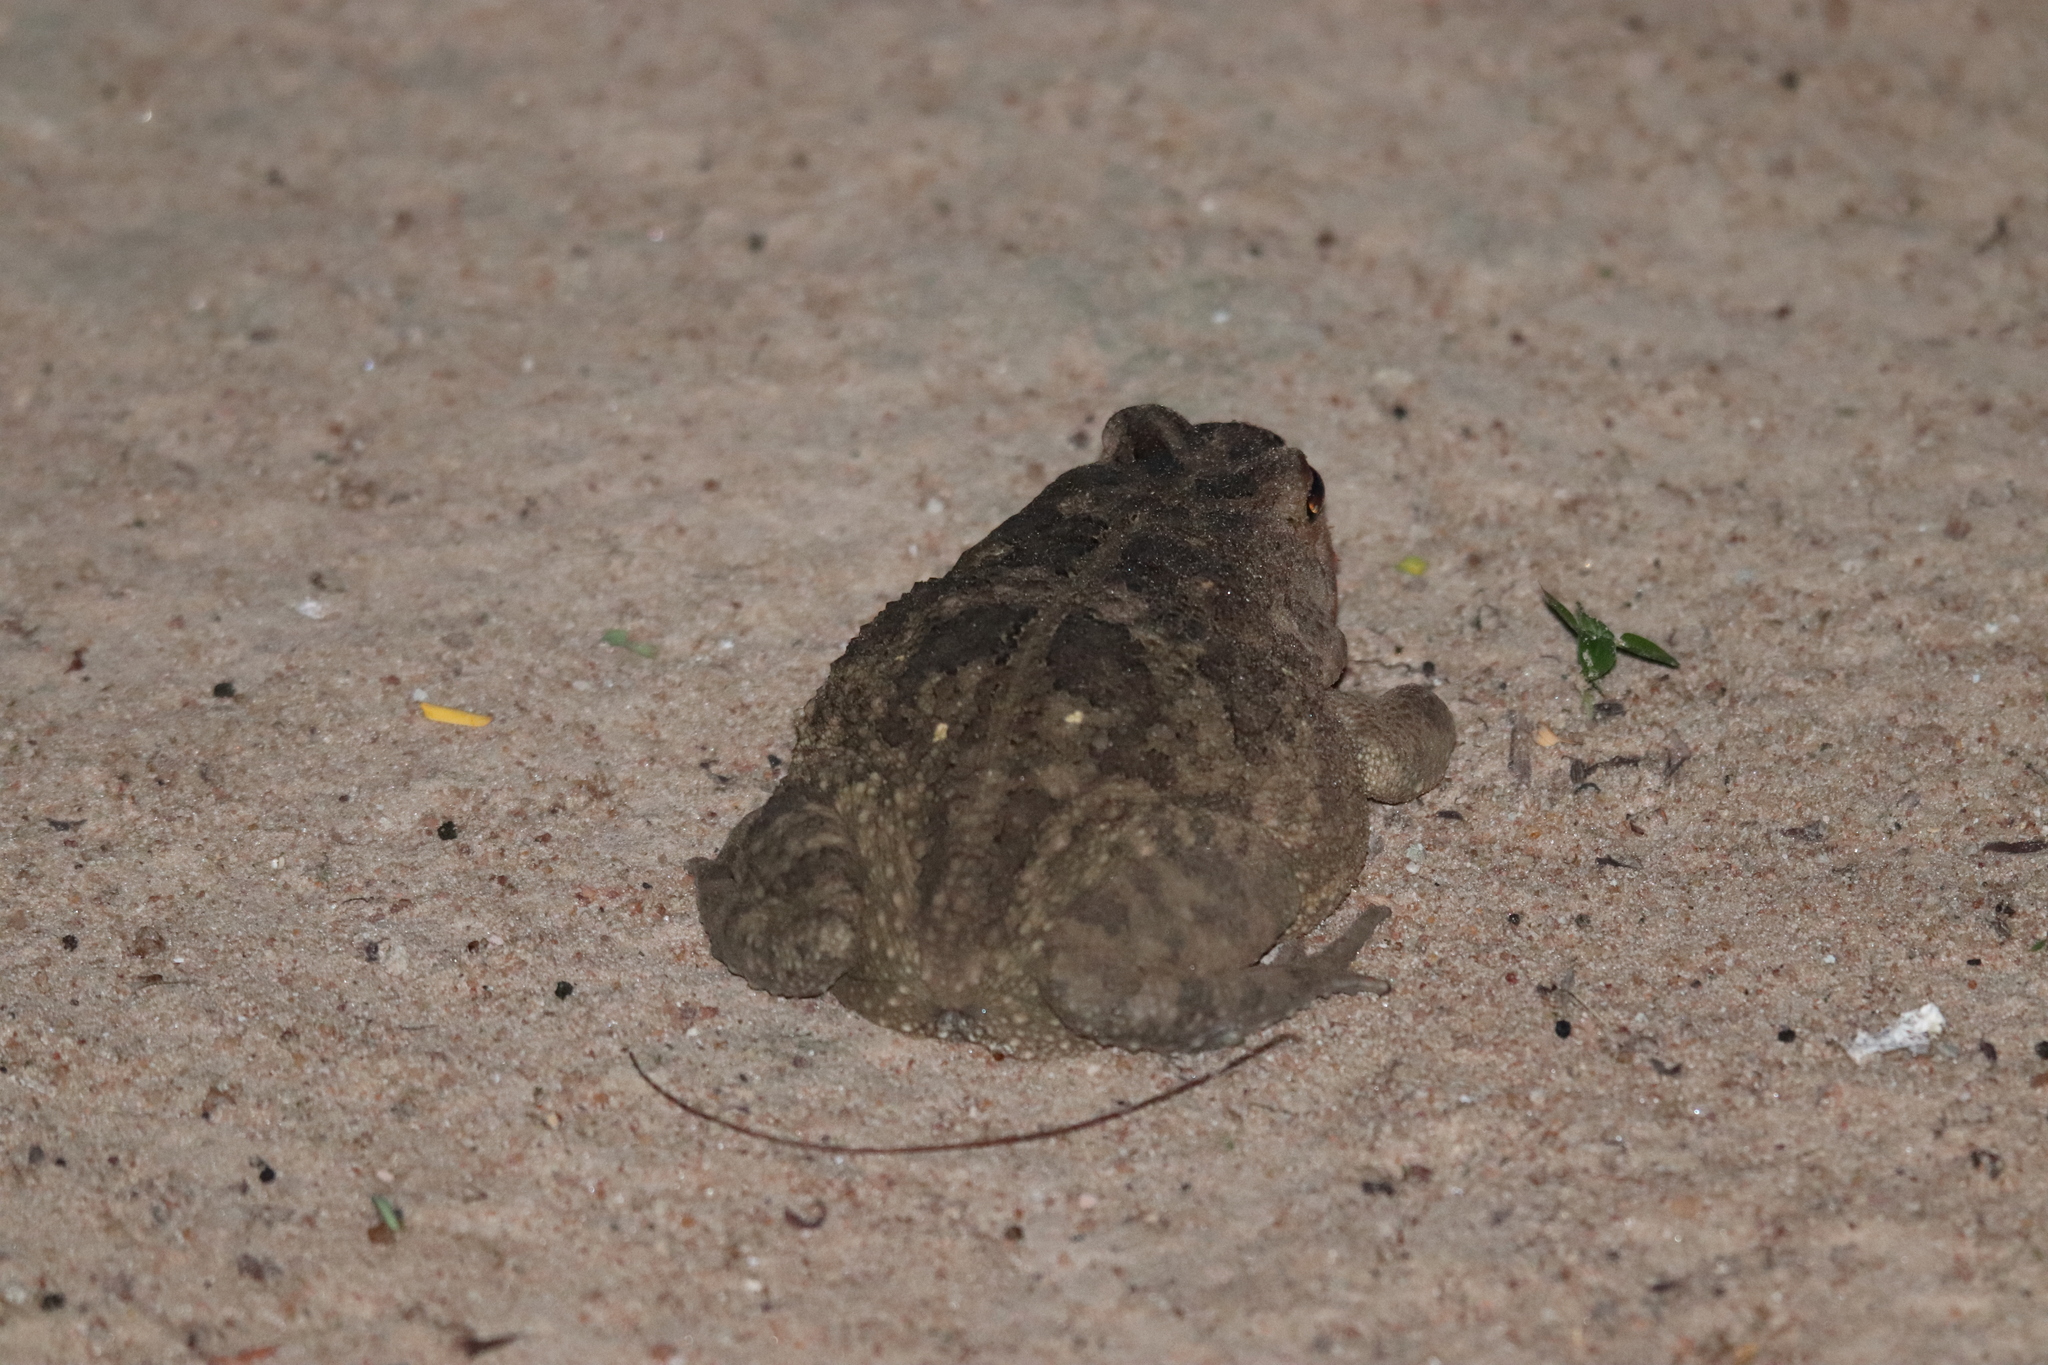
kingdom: Animalia
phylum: Chordata
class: Amphibia
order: Anura
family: Bufonidae
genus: Sclerophrys
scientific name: Sclerophrys regularis
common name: African common toad
